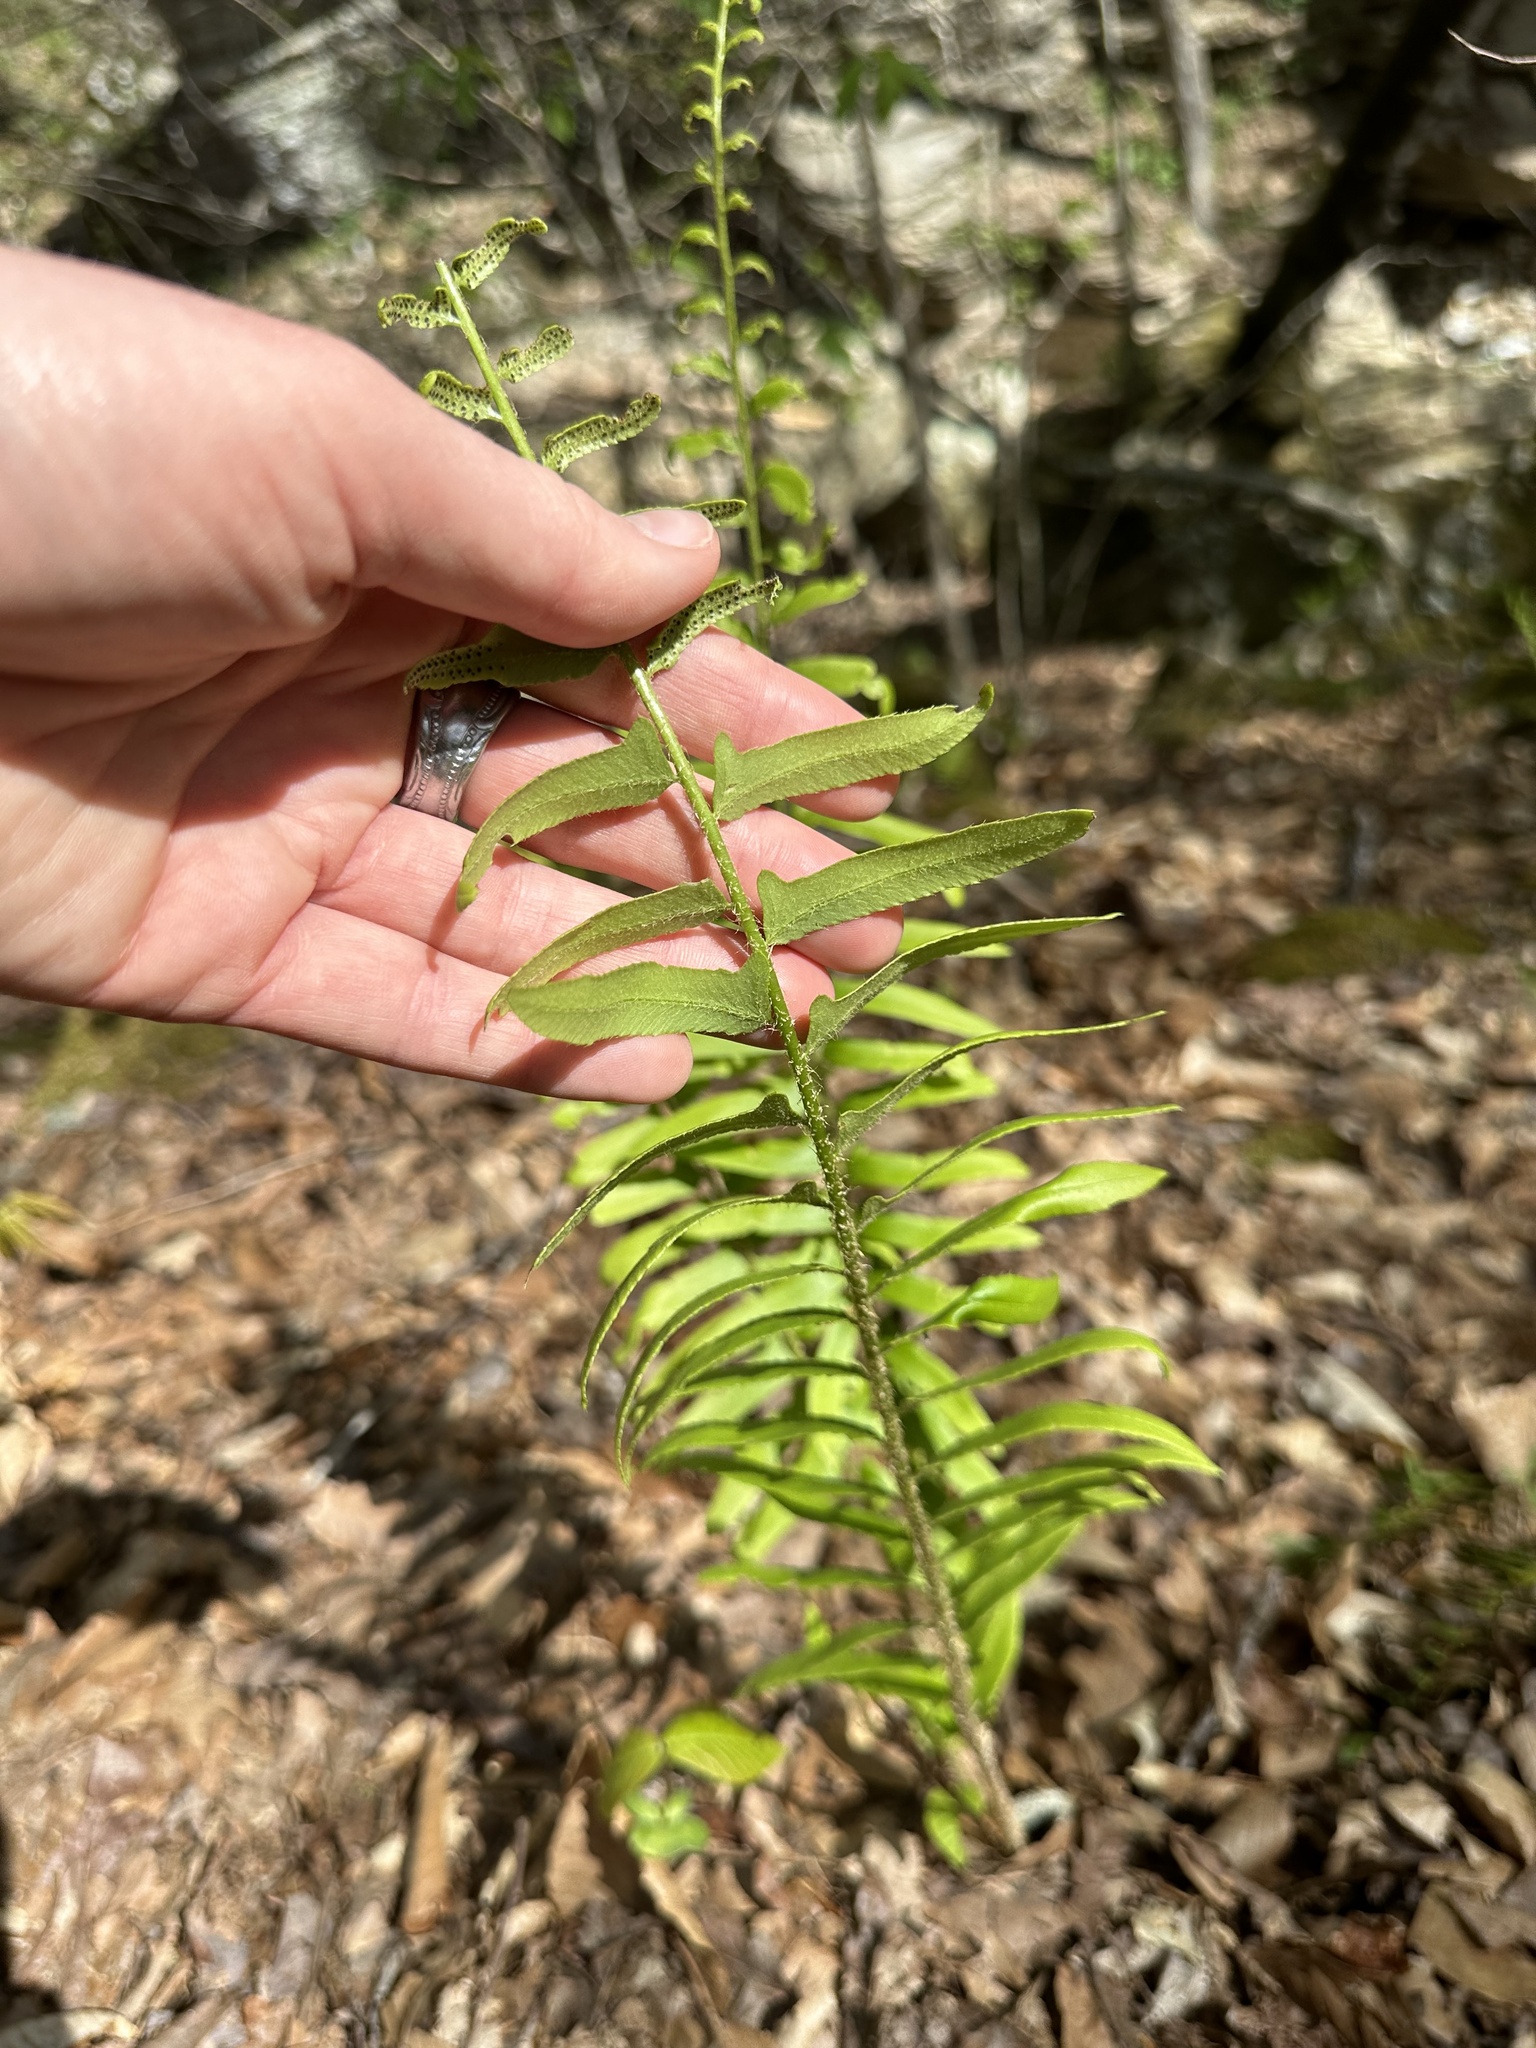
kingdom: Plantae
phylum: Tracheophyta
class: Polypodiopsida
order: Polypodiales
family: Dryopteridaceae
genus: Polystichum
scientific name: Polystichum acrostichoides
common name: Christmas fern
